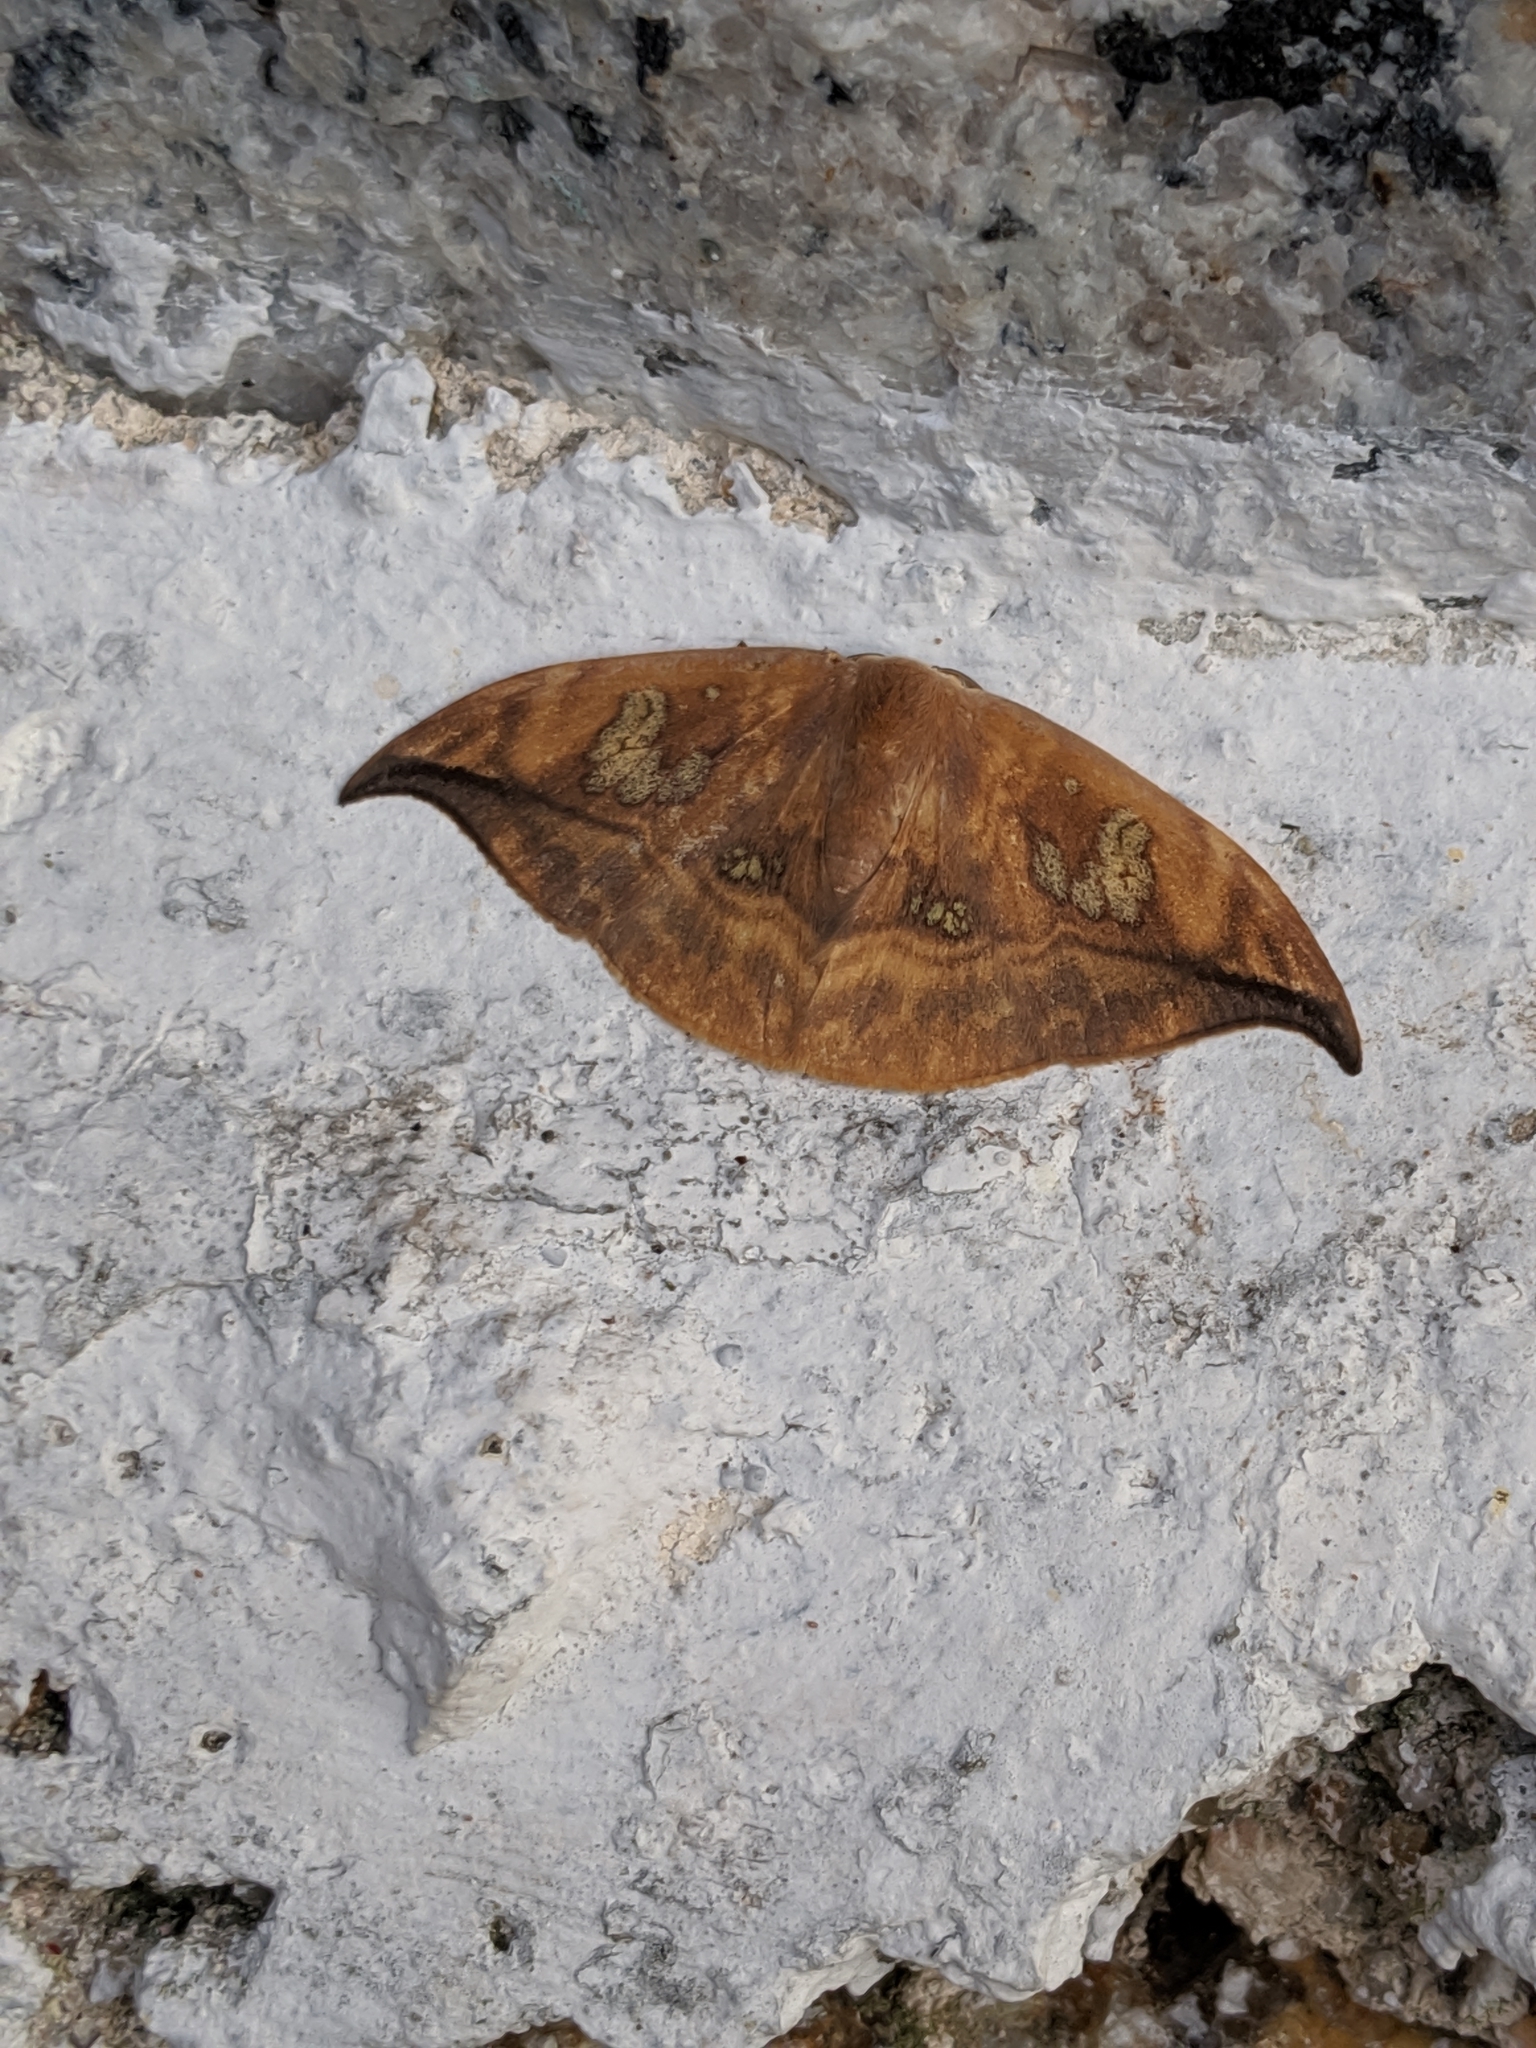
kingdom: Animalia
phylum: Arthropoda
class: Insecta
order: Lepidoptera
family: Drepanidae
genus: Agnidra
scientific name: Agnidra fuscilinea
